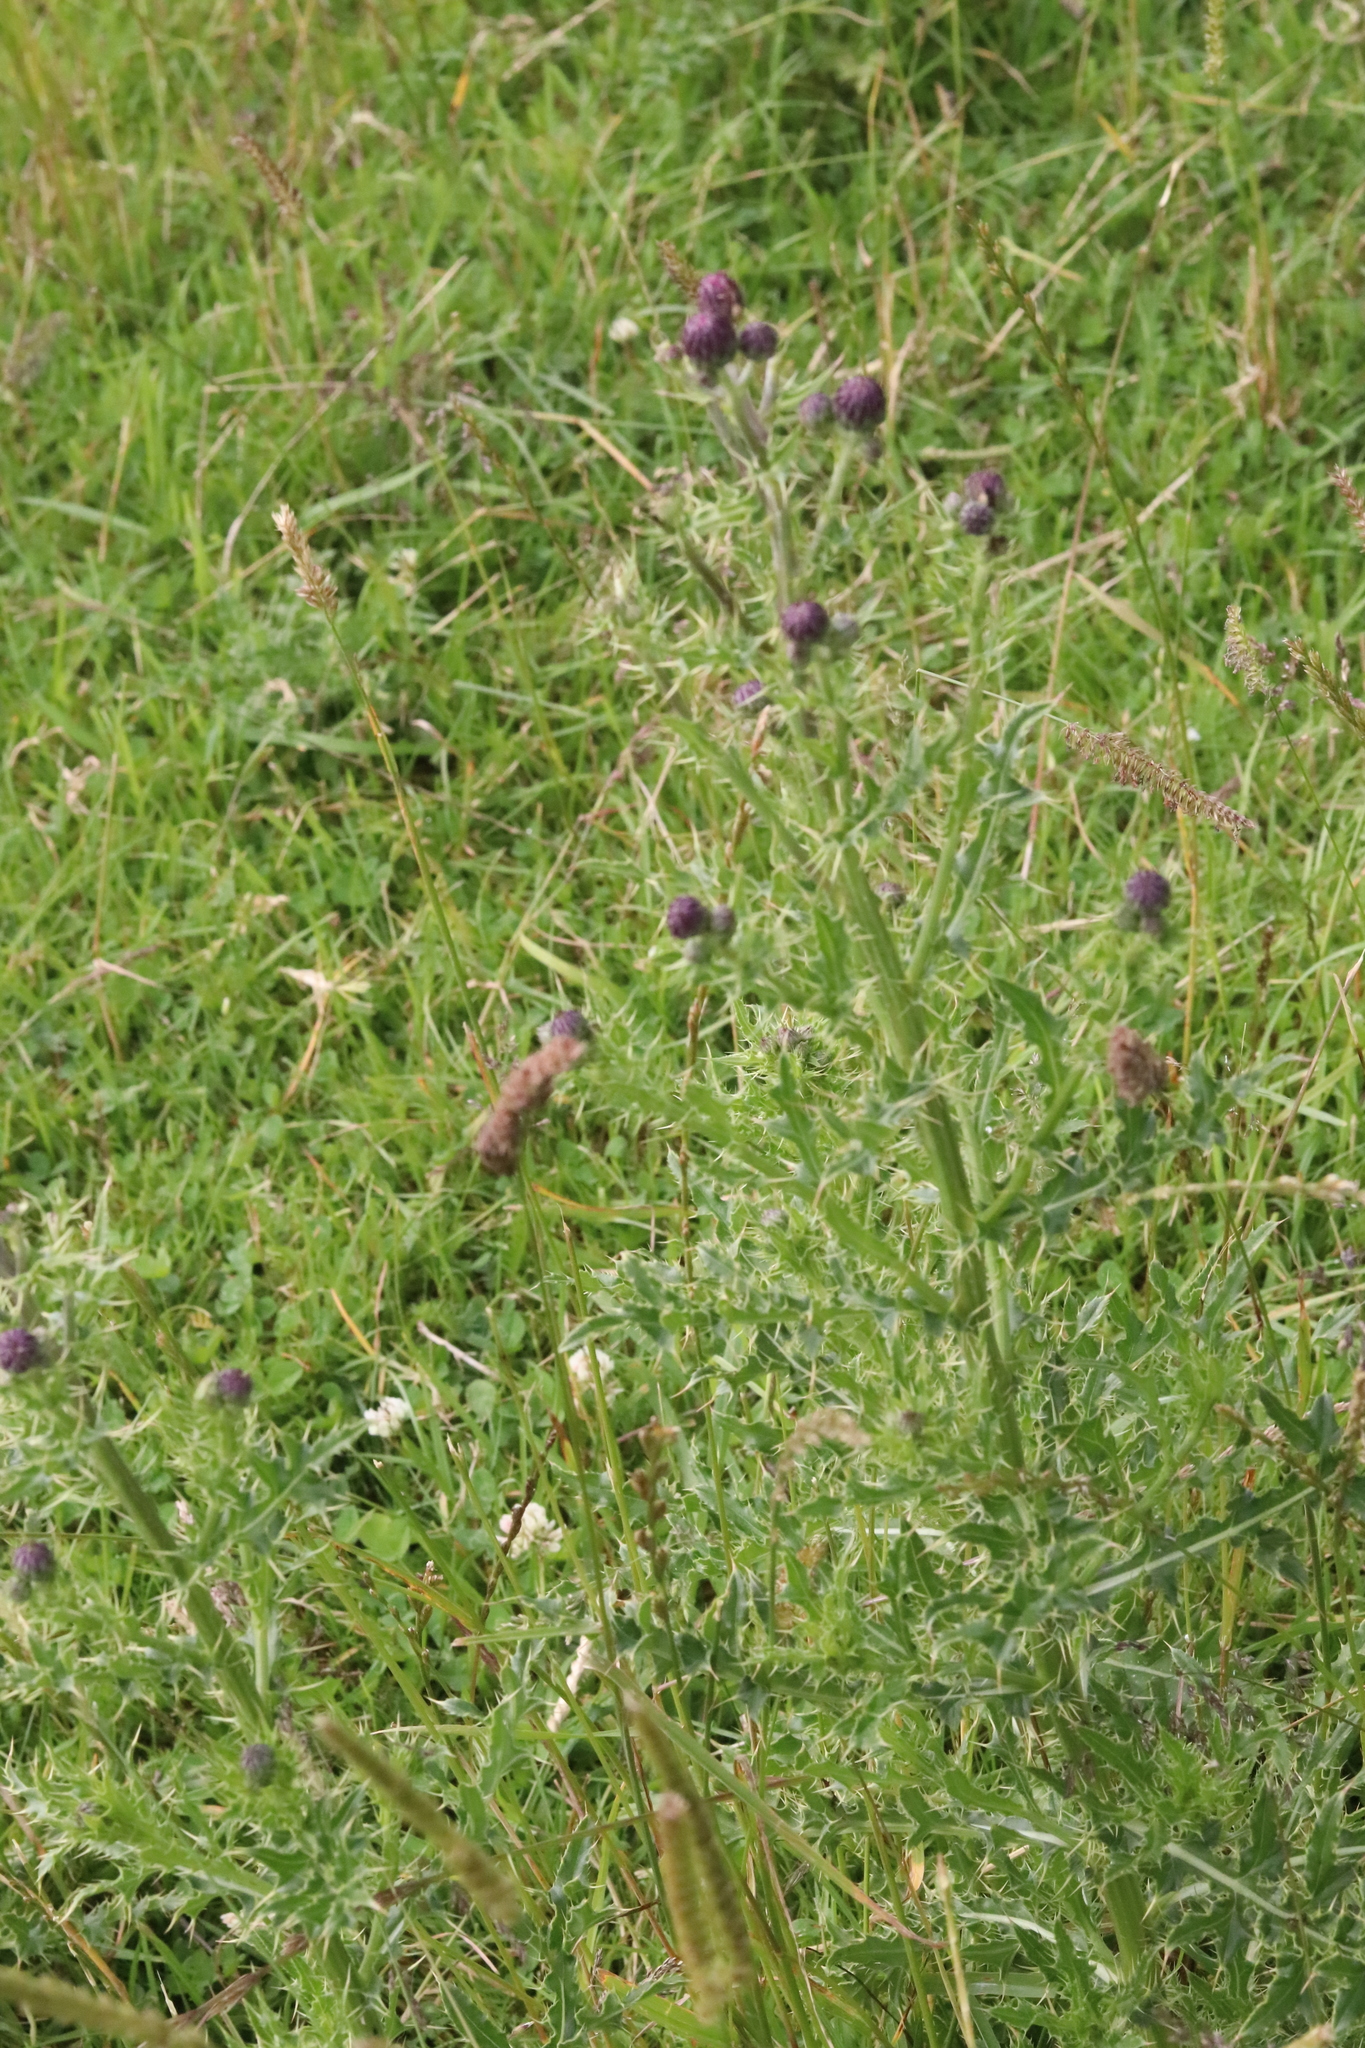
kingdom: Plantae
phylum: Tracheophyta
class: Magnoliopsida
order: Asterales
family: Asteraceae
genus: Cirsium
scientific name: Cirsium arvense
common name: Creeping thistle
